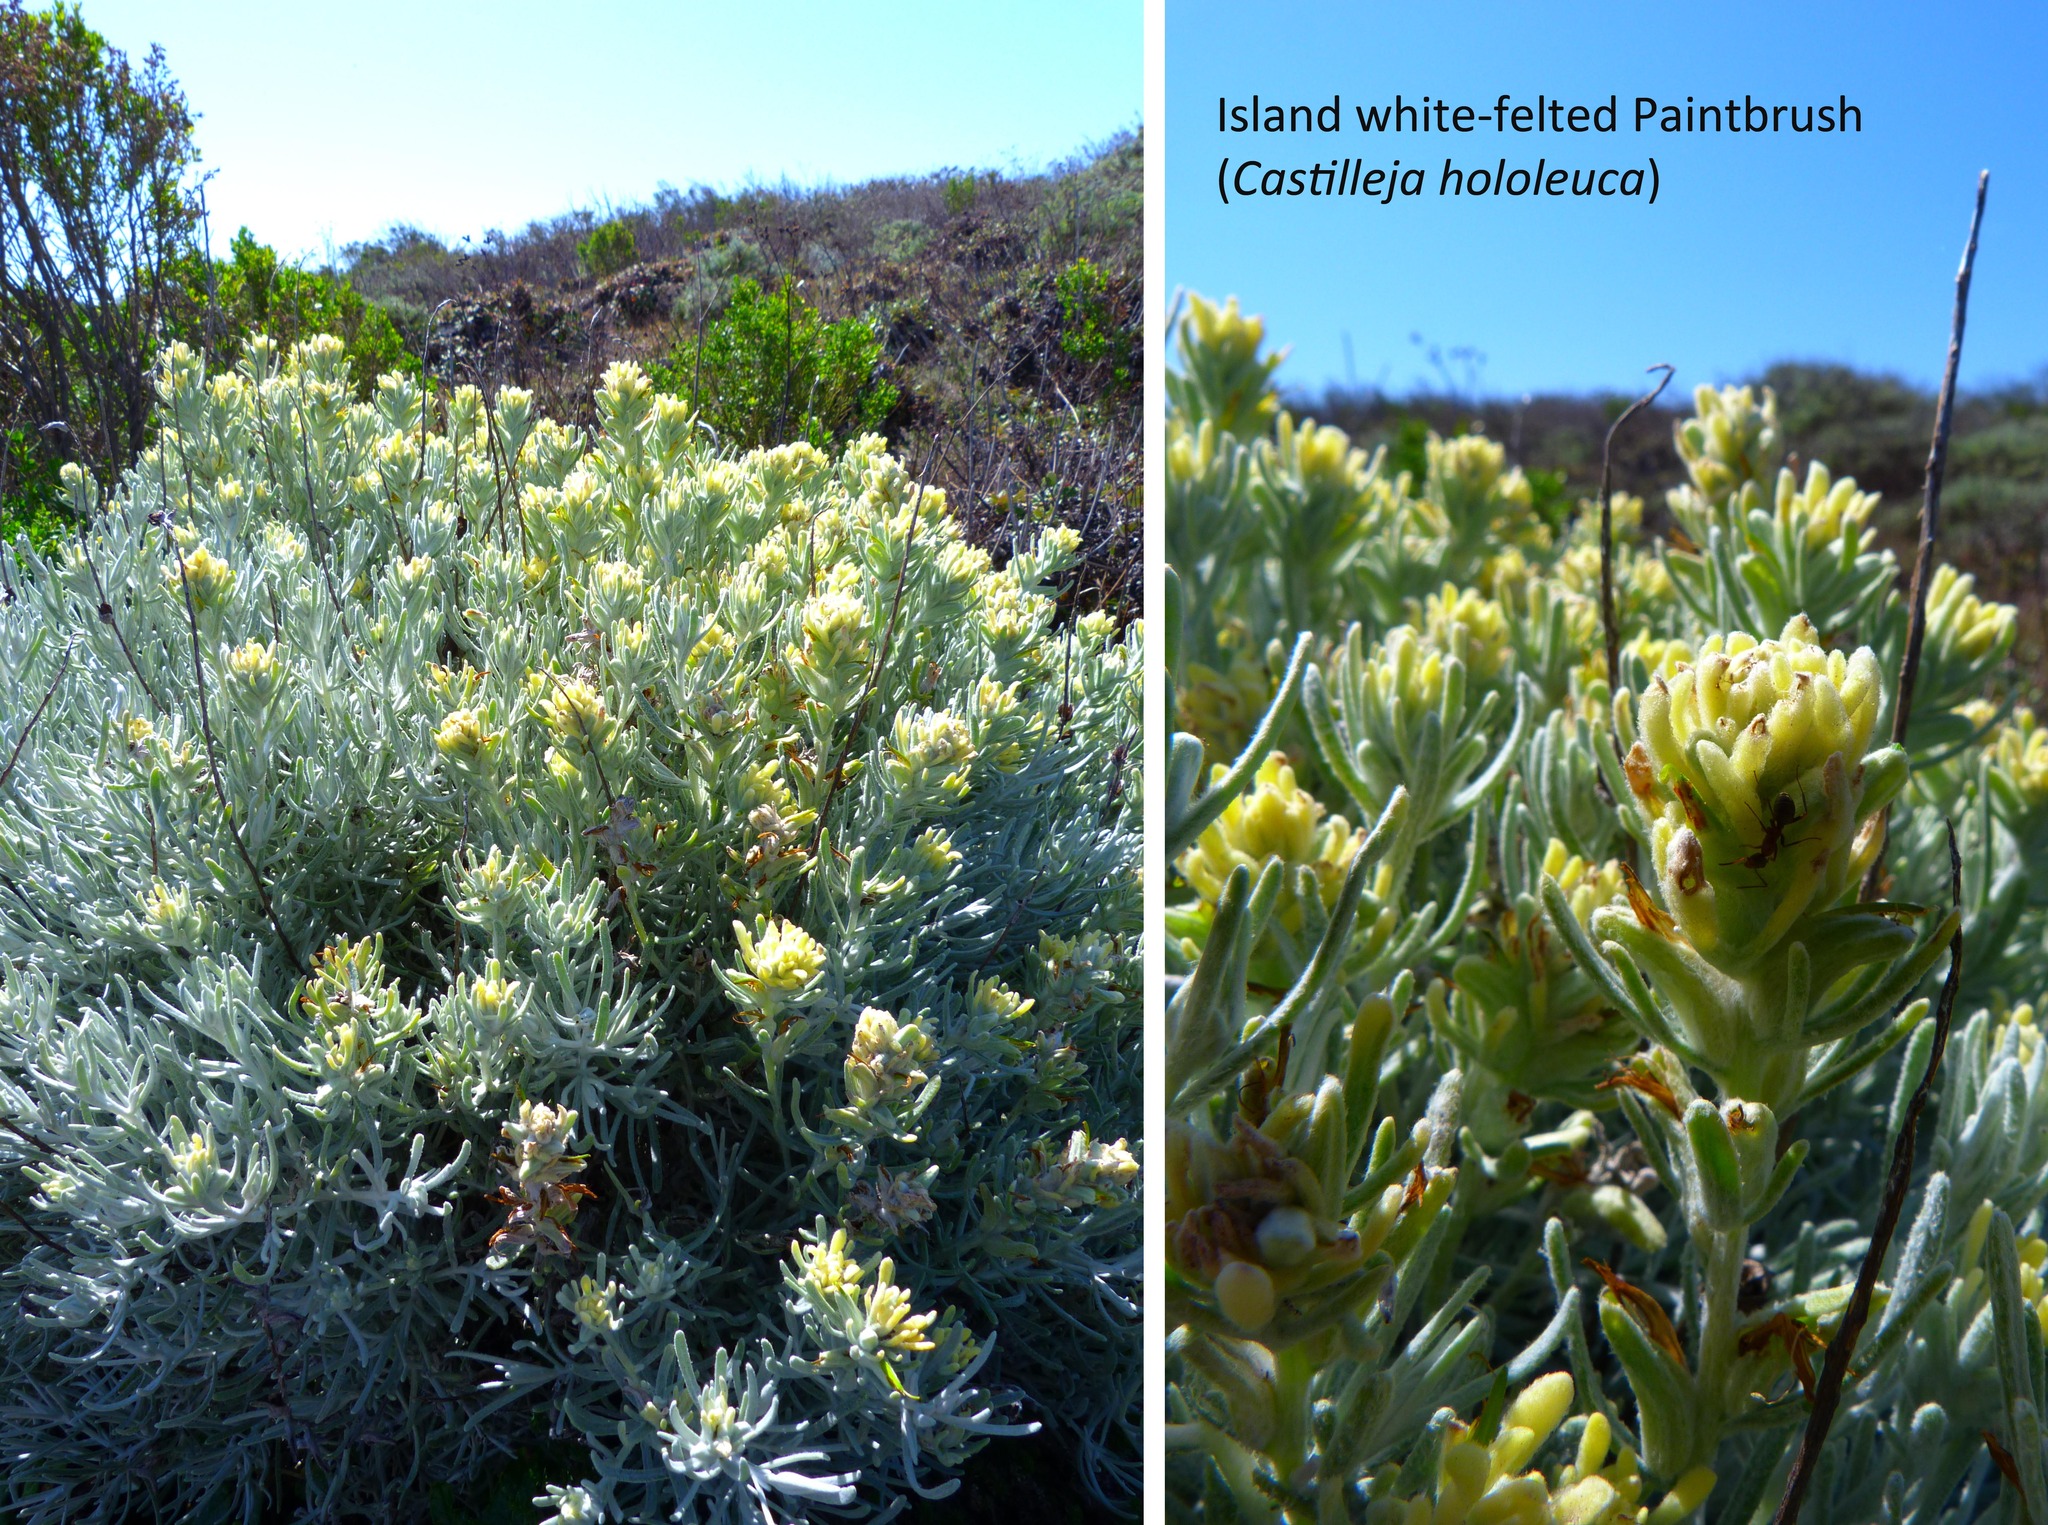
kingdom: Plantae
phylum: Tracheophyta
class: Magnoliopsida
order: Lamiales
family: Orobanchaceae
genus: Castilleja
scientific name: Castilleja hololeuca
